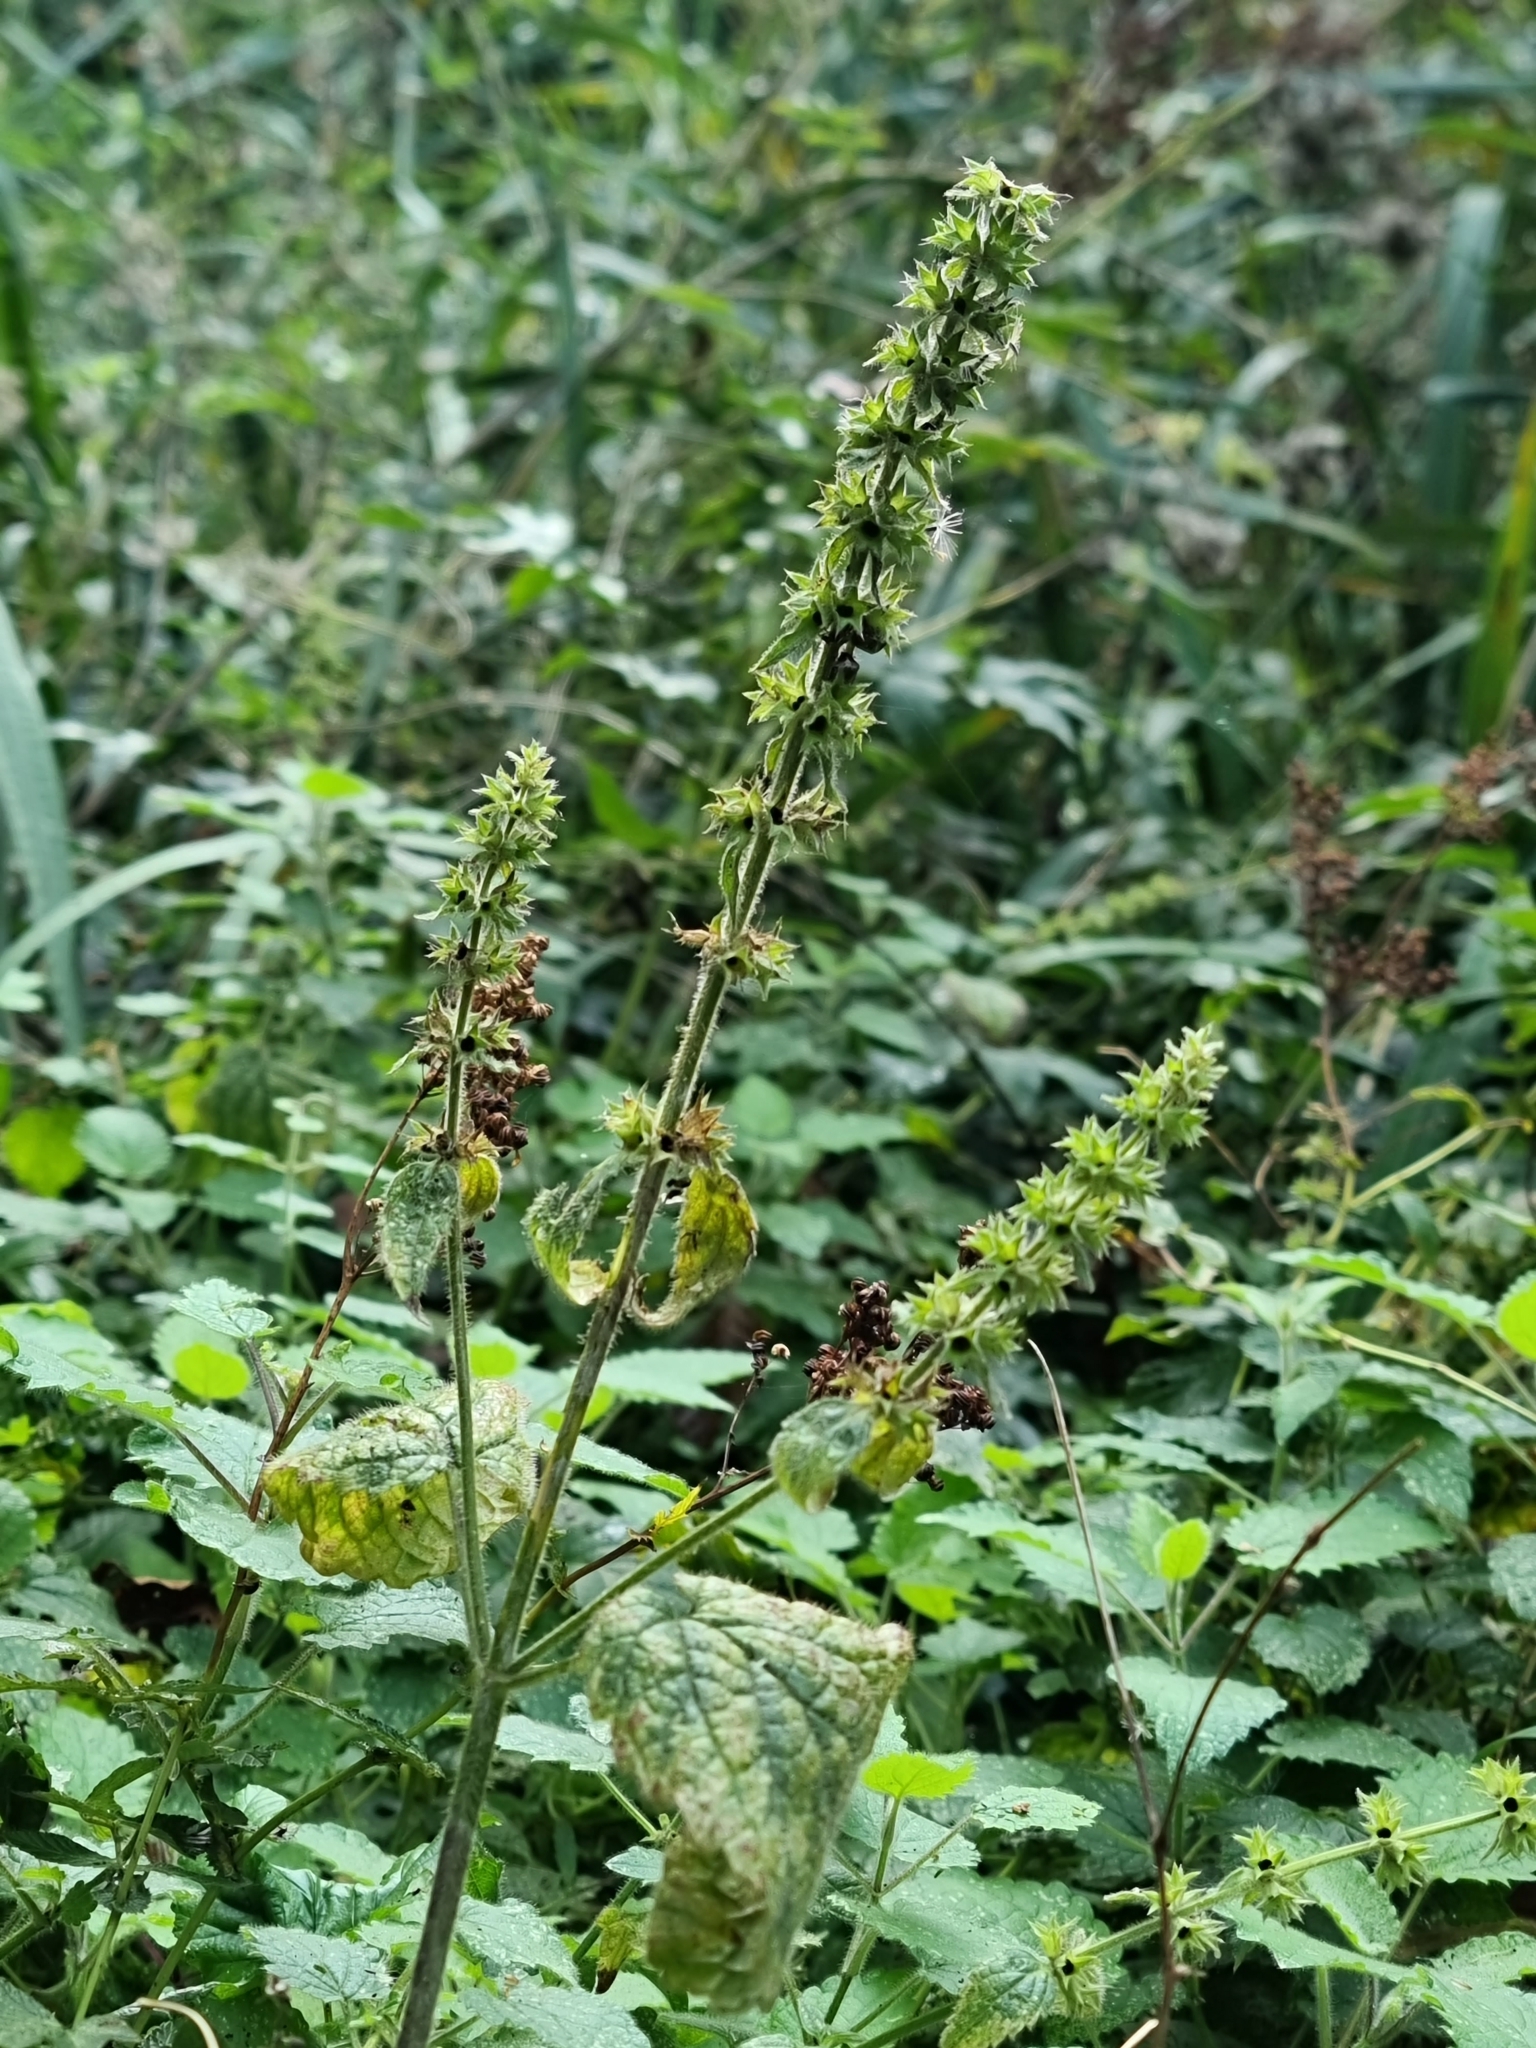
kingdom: Plantae
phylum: Tracheophyta
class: Magnoliopsida
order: Lamiales
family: Lamiaceae
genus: Stachys
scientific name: Stachys sylvatica
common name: Hedge woundwort
